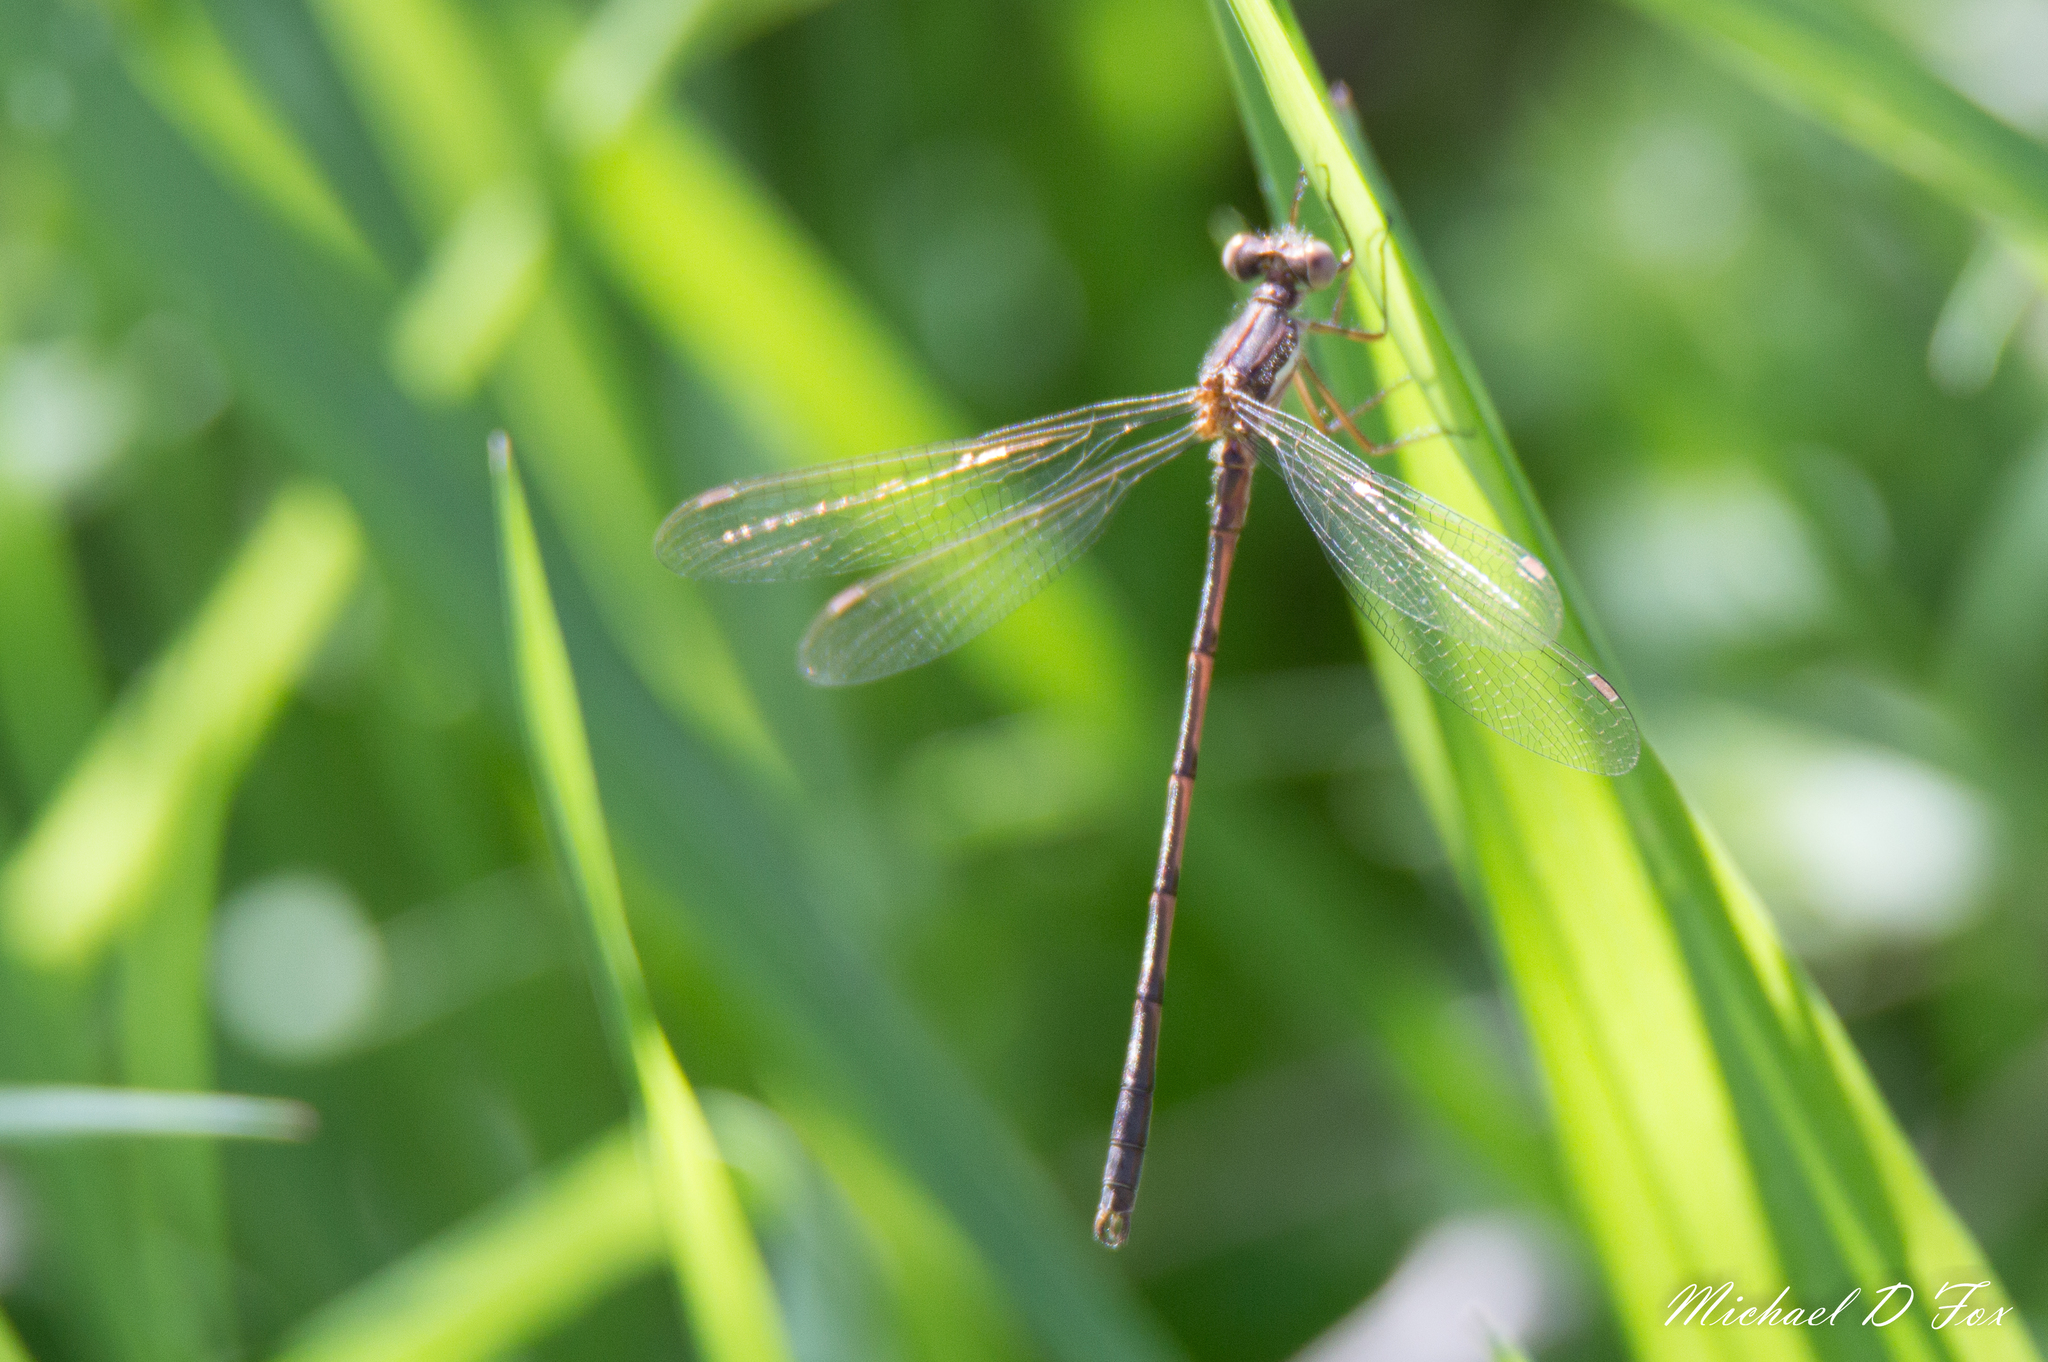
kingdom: Animalia
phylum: Arthropoda
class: Insecta
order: Odonata
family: Lestidae
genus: Lestes
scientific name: Lestes australis
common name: Southern spreadwing
